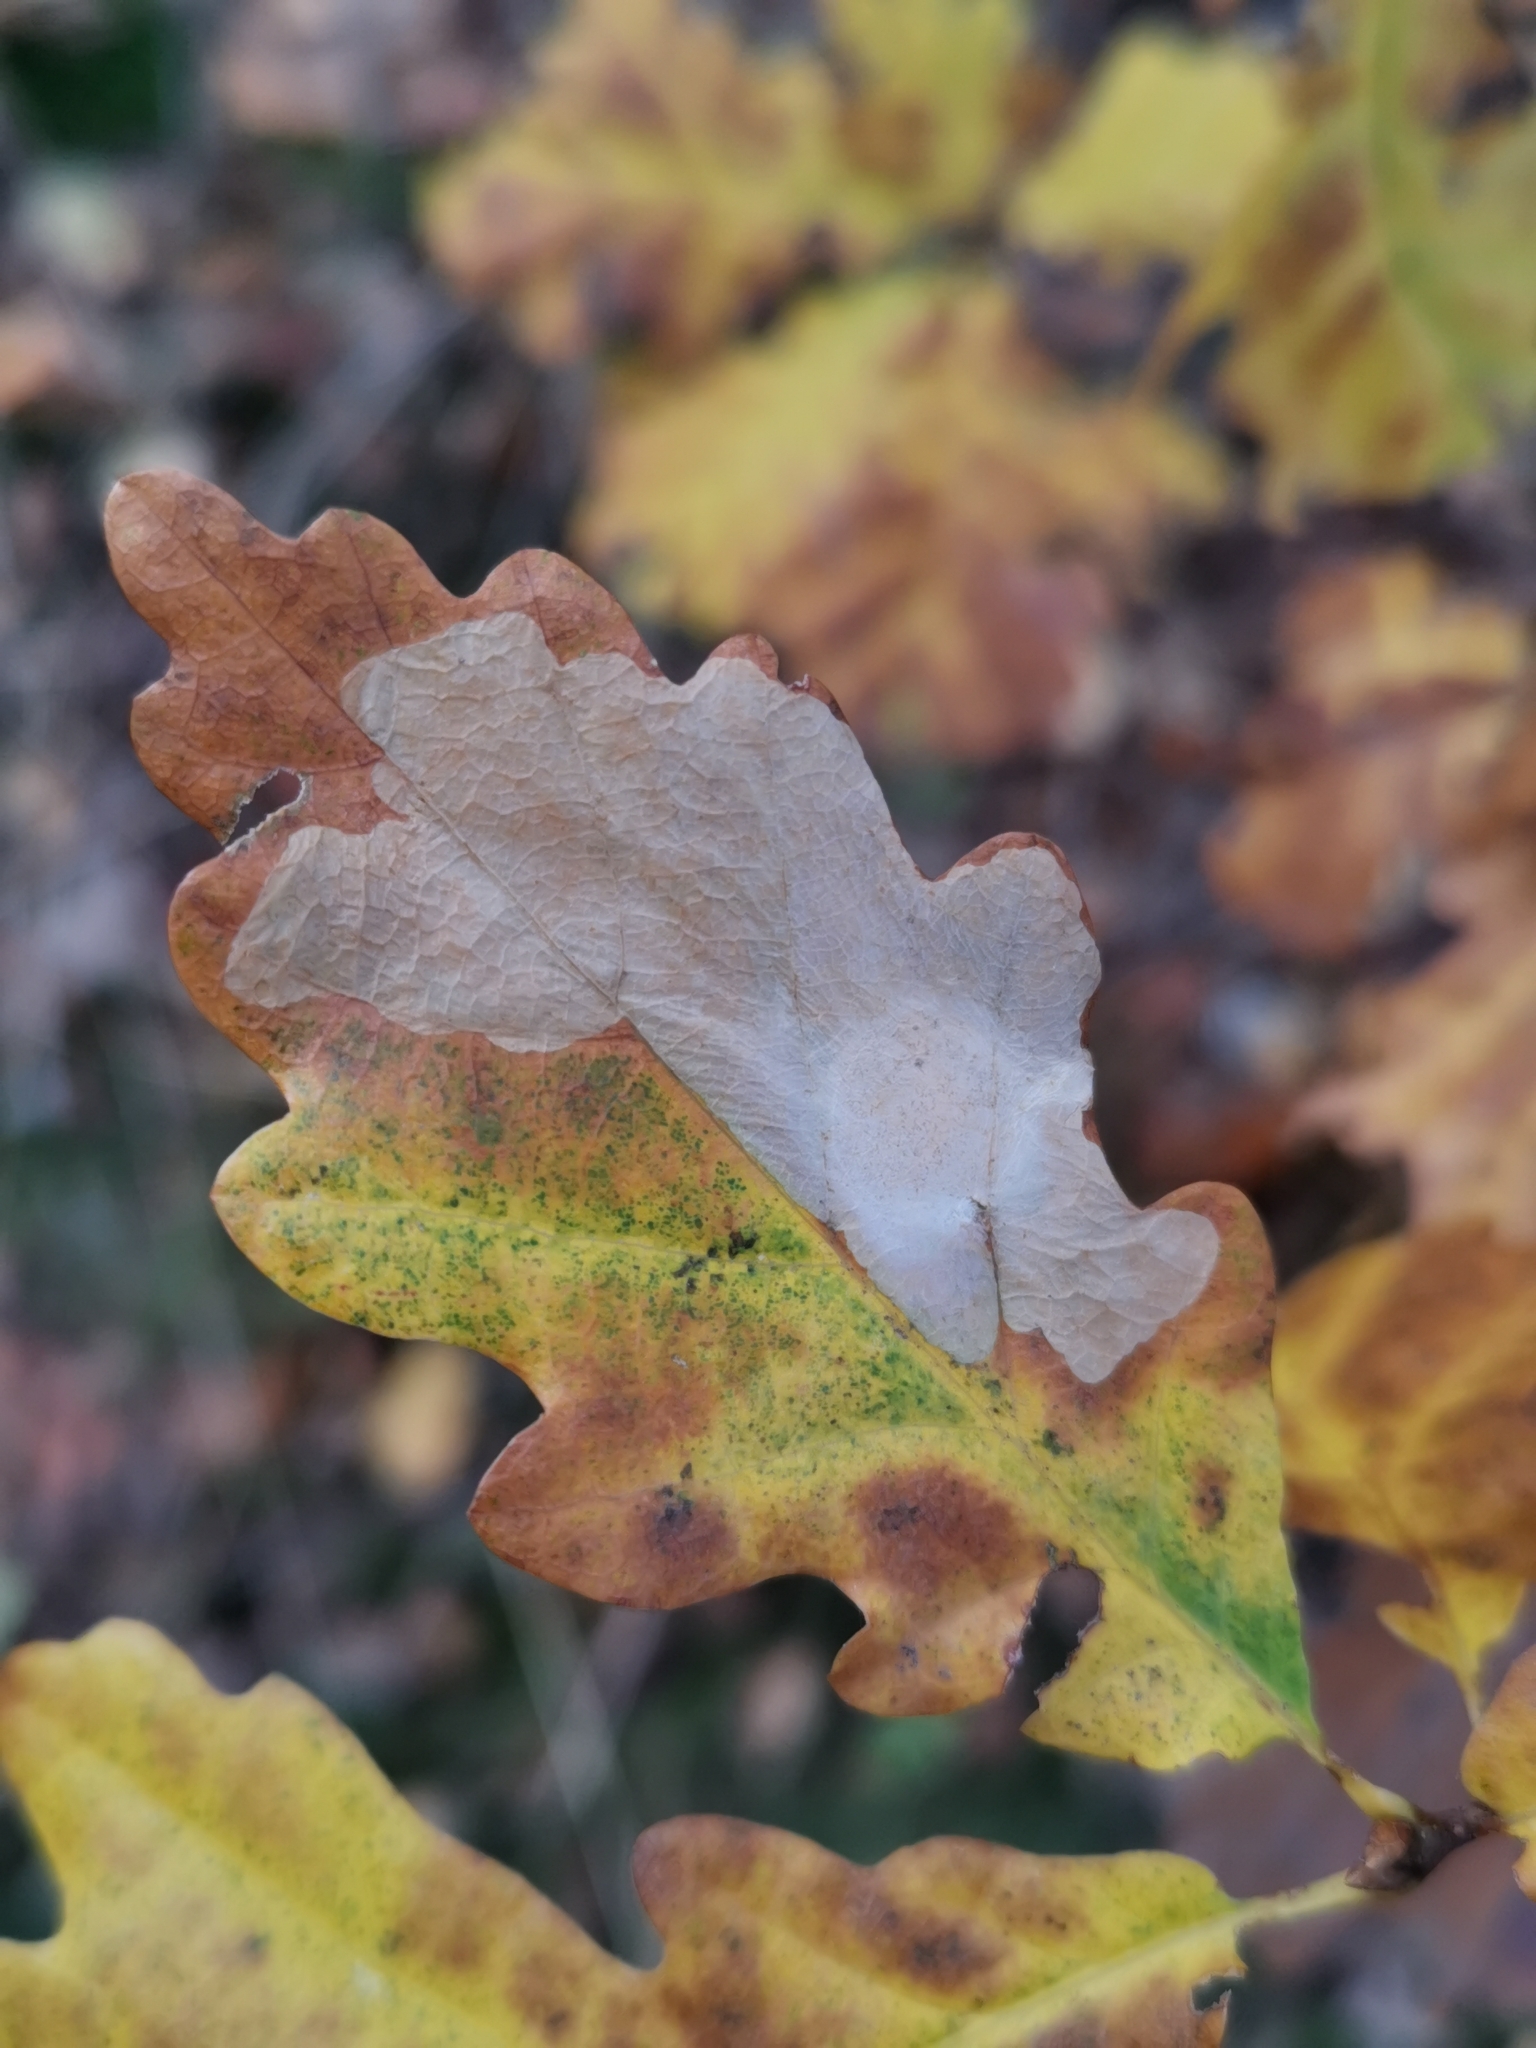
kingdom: Animalia
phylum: Arthropoda
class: Insecta
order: Lepidoptera
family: Tischeriidae
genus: Tischeria
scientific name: Tischeria ekebladella
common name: Oak carl
